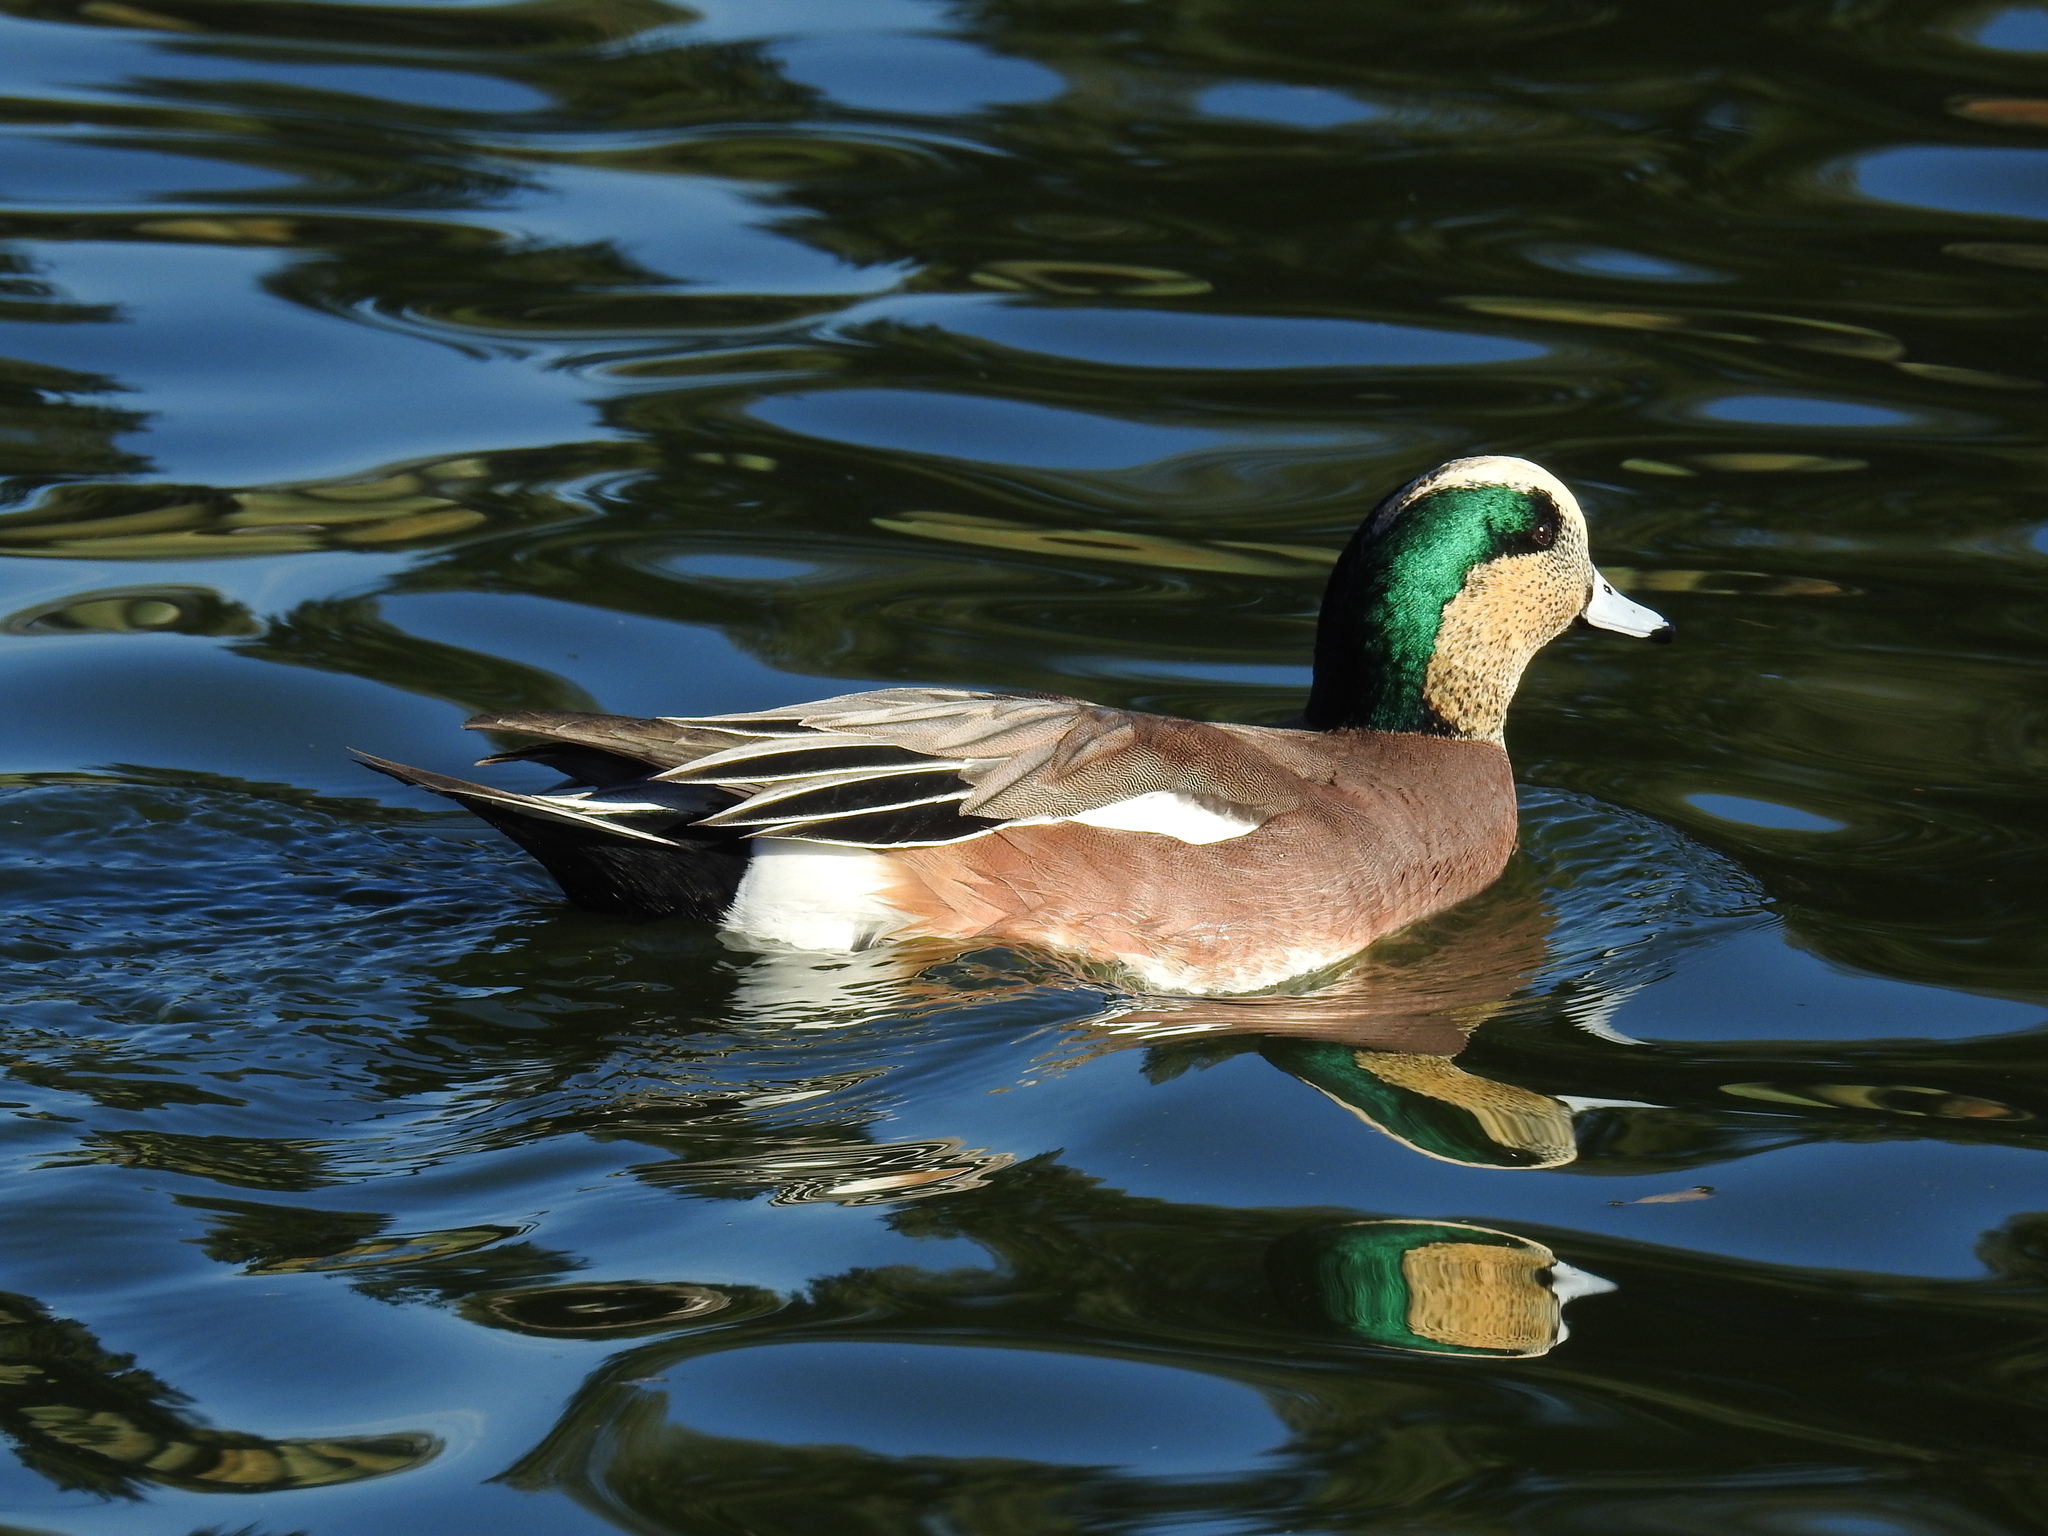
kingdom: Animalia
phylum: Chordata
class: Aves
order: Anseriformes
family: Anatidae
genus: Mareca
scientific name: Mareca americana
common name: American wigeon
